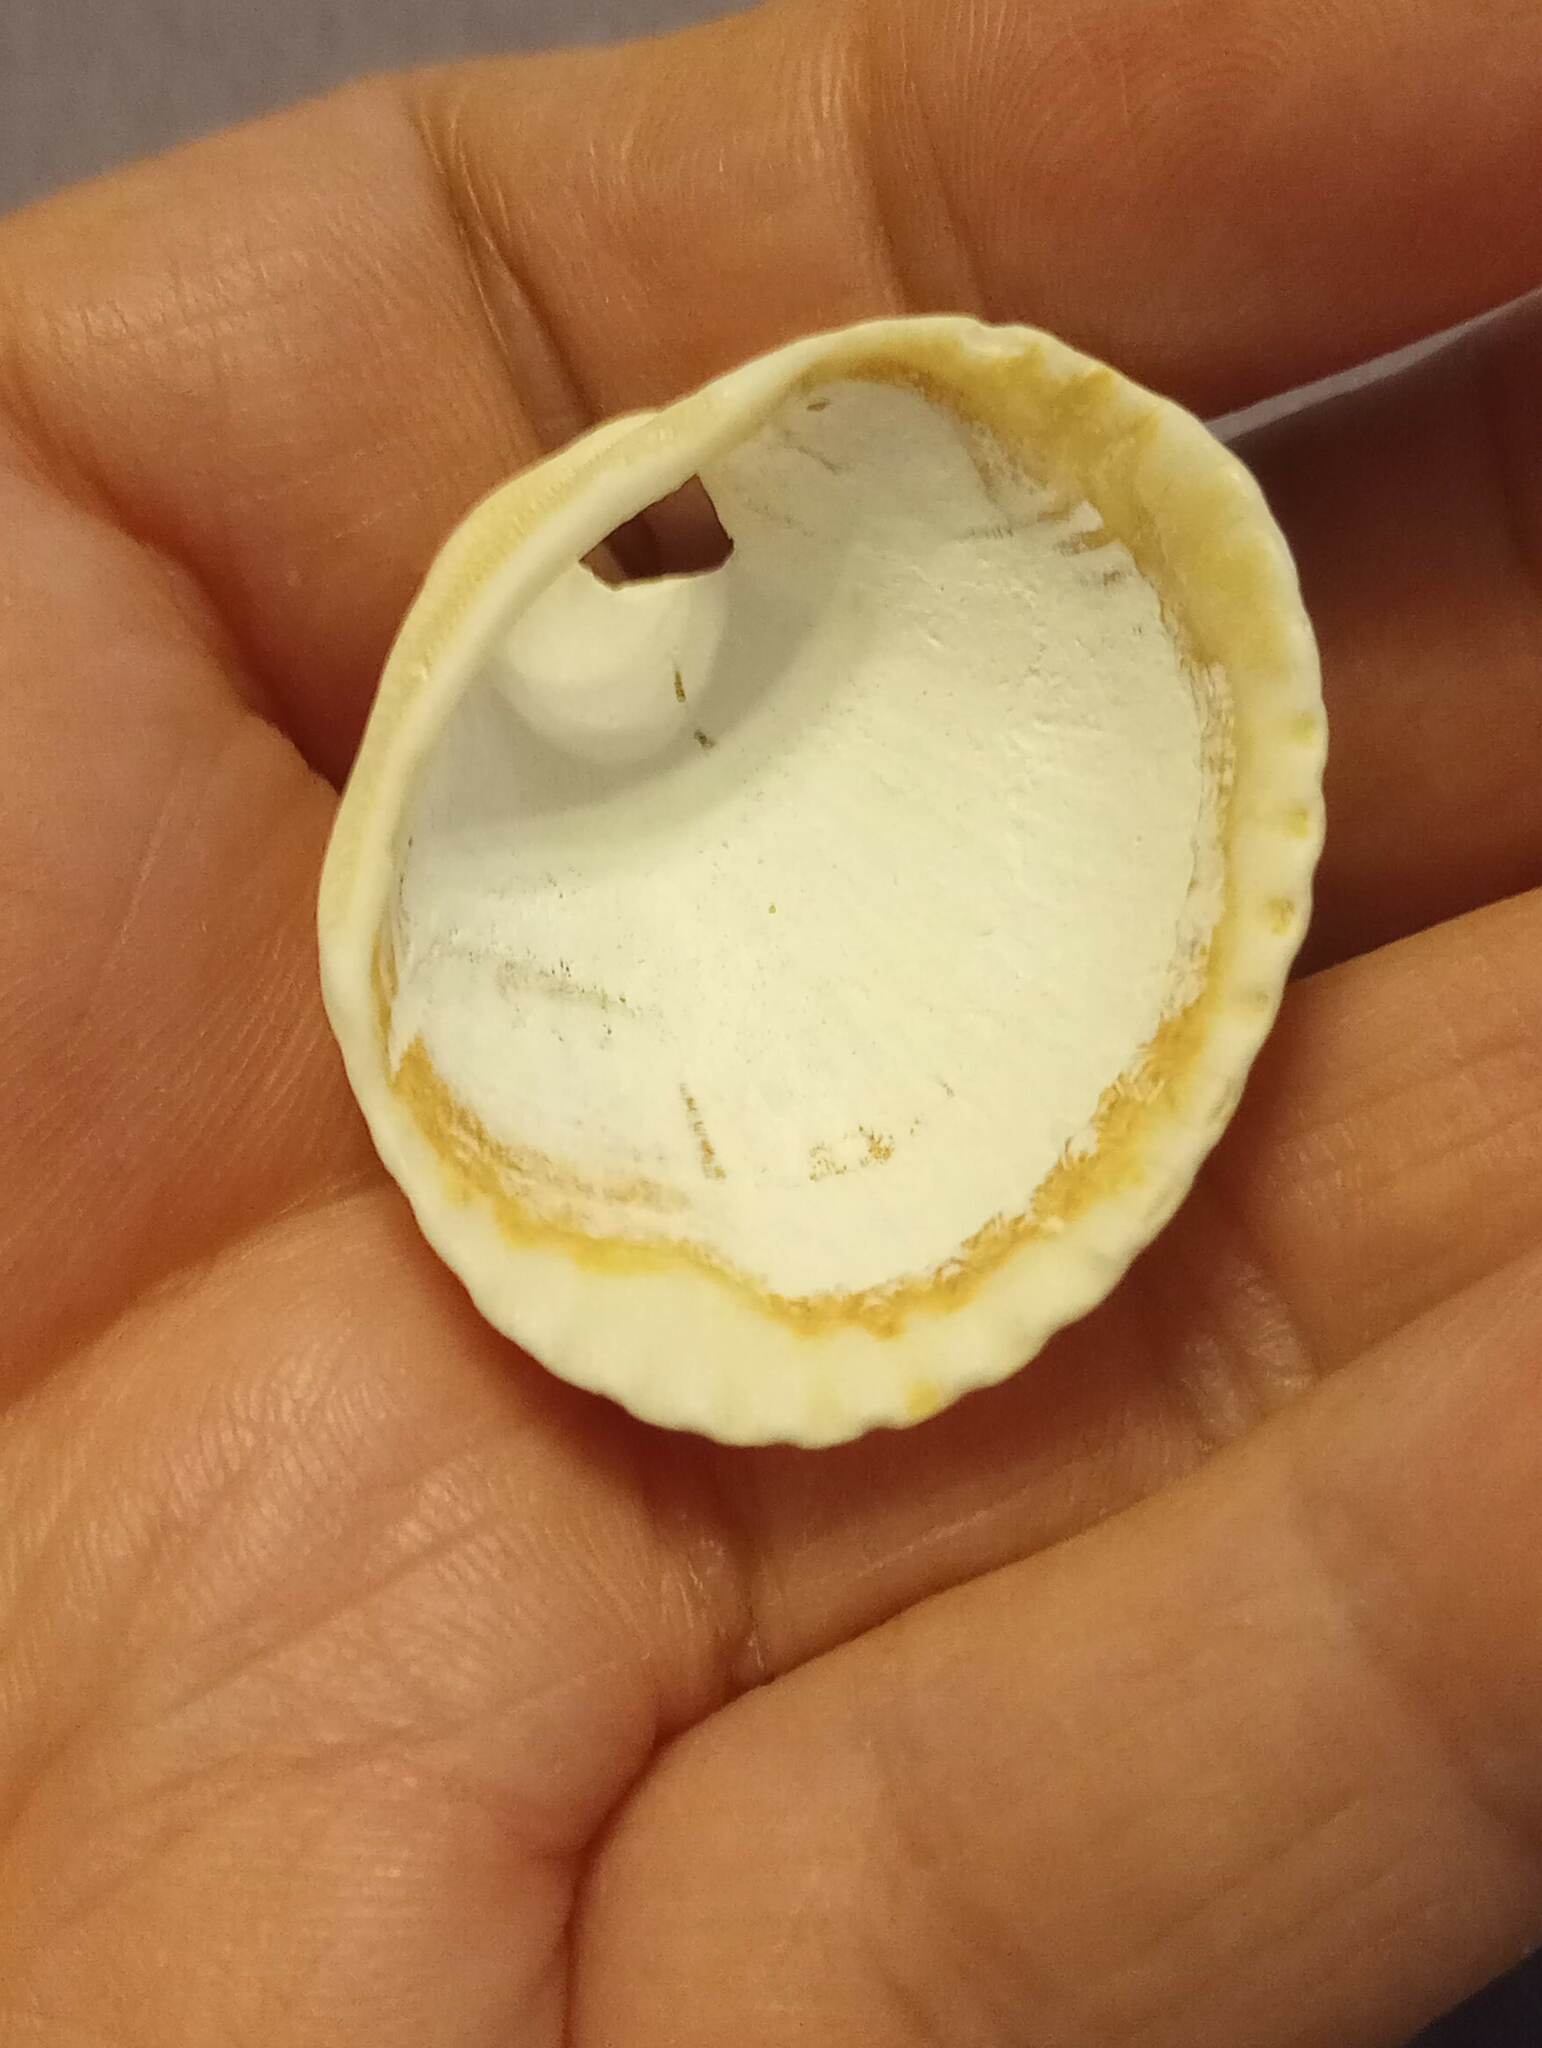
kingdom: Animalia
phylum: Mollusca
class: Bivalvia
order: Arcida
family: Arcidae
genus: Lunarca
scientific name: Lunarca ovalis
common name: Blood ark
